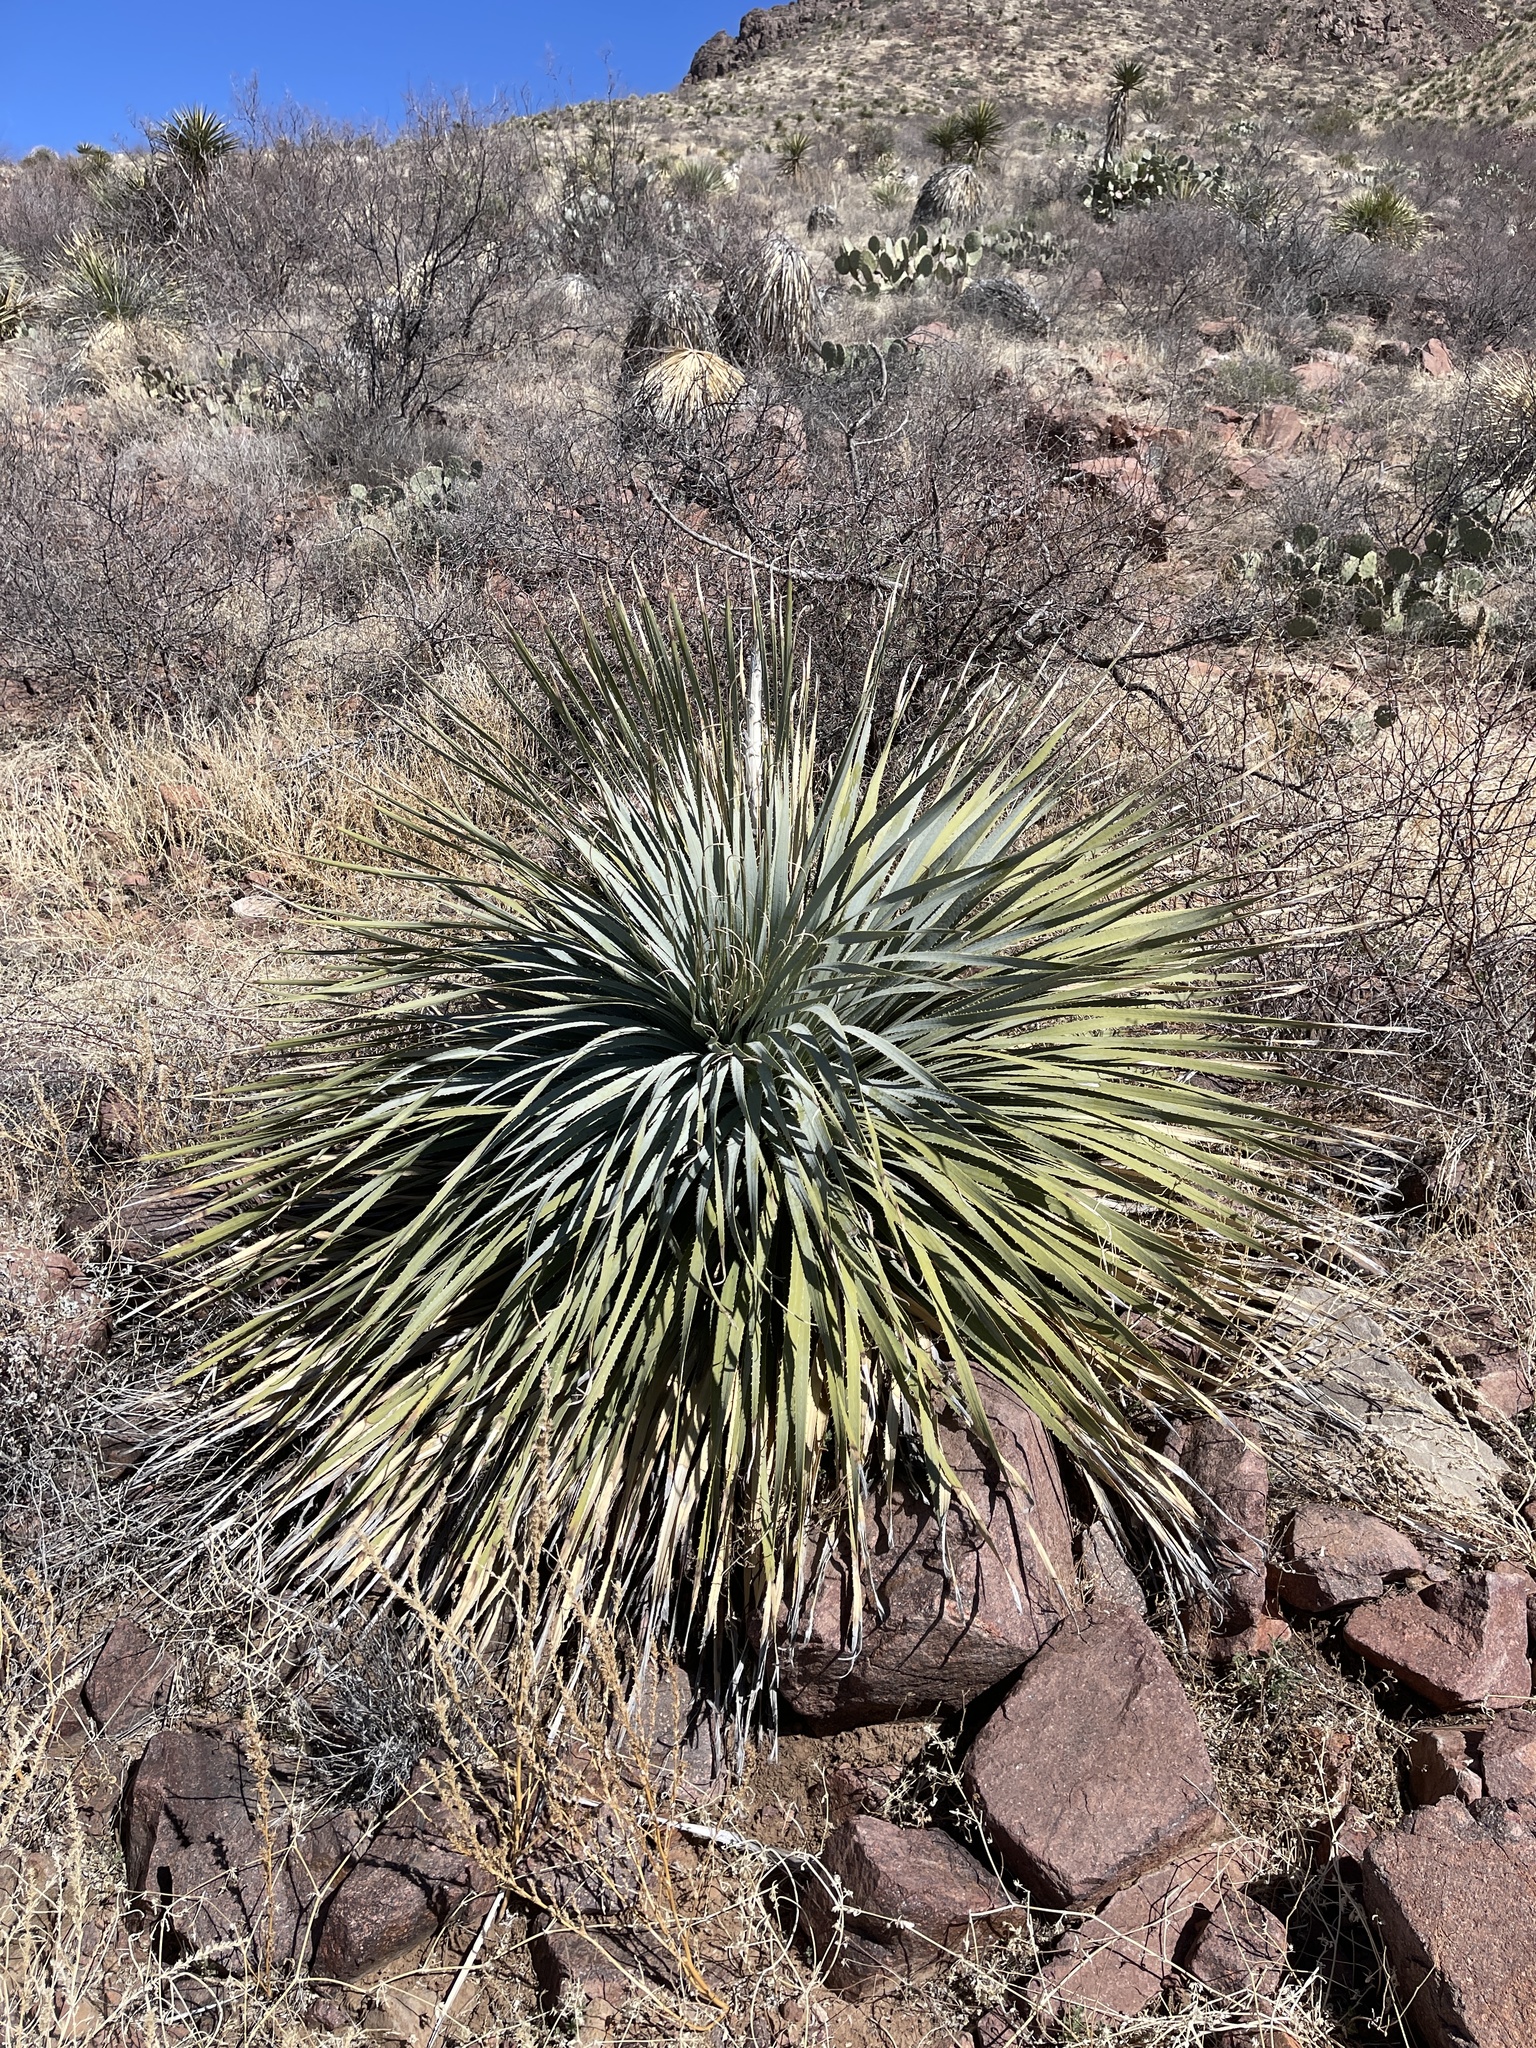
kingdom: Plantae
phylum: Tracheophyta
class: Liliopsida
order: Asparagales
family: Asparagaceae
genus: Dasylirion
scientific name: Dasylirion wheeleri
